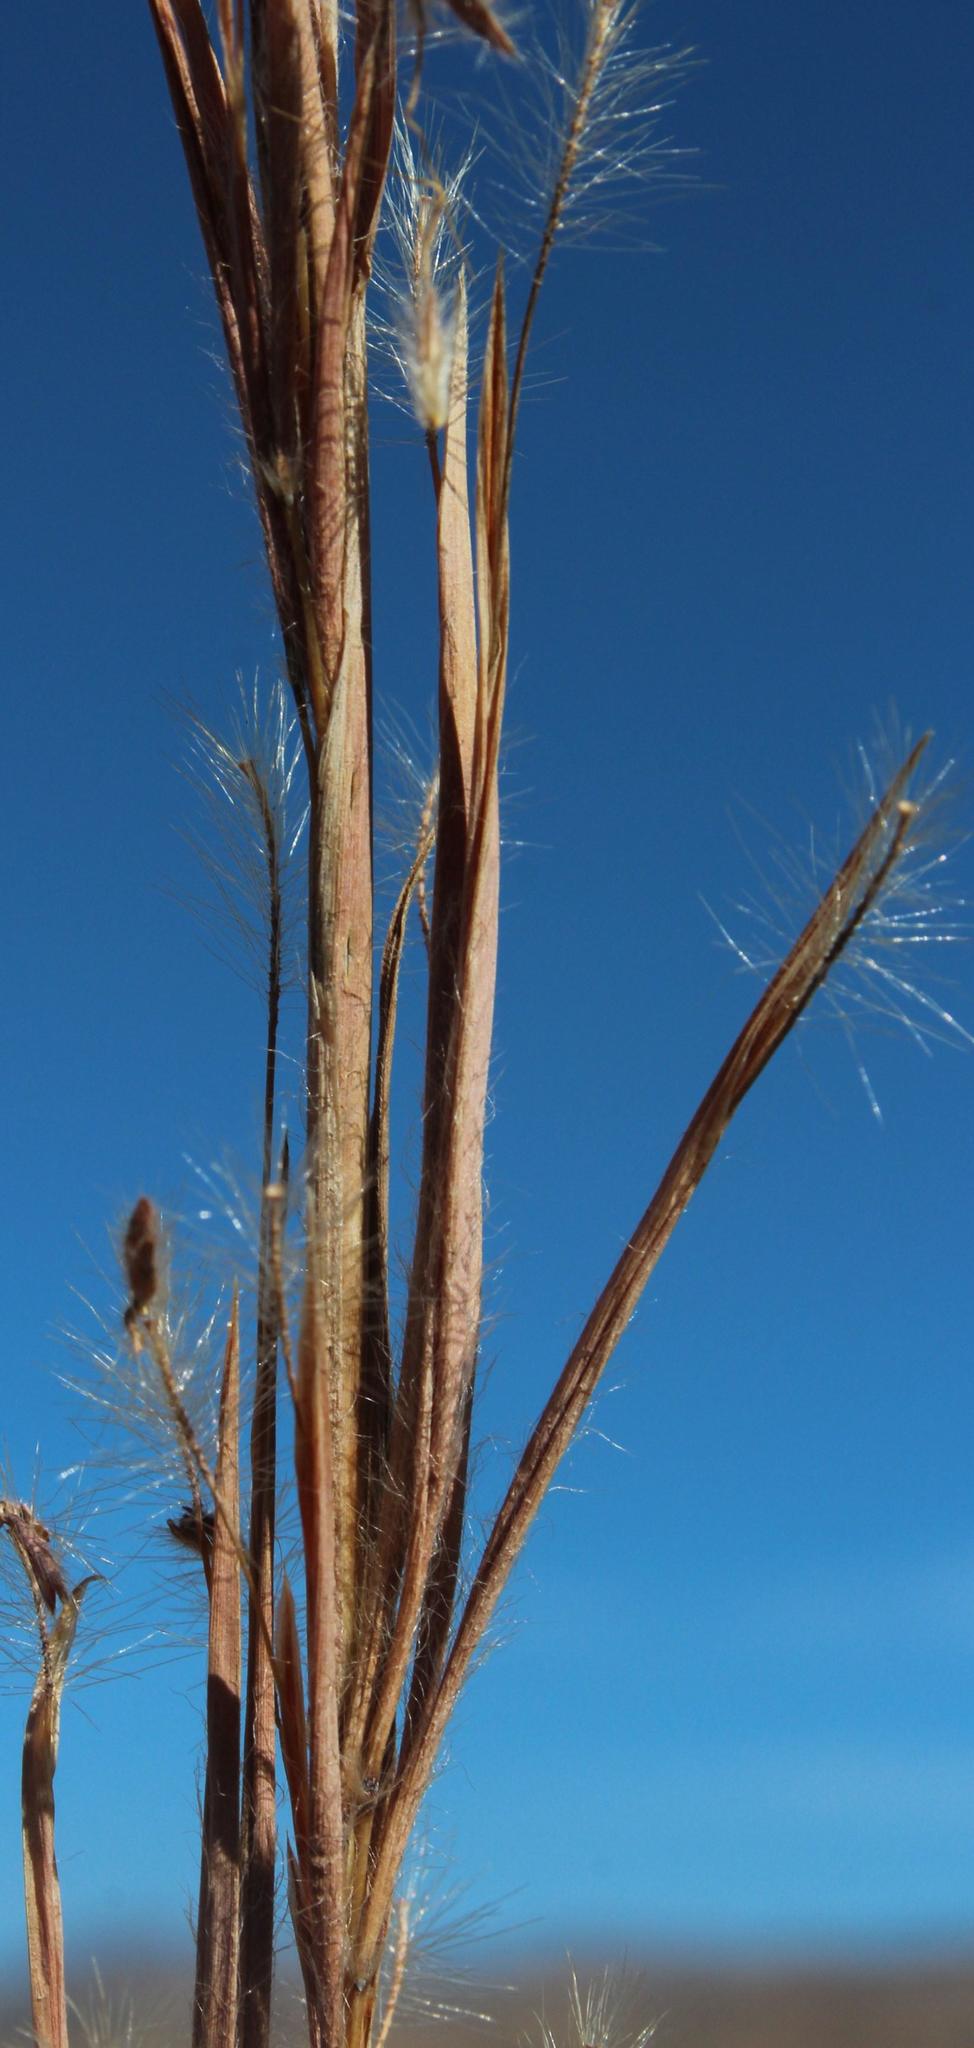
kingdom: Plantae
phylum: Tracheophyta
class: Liliopsida
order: Poales
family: Poaceae
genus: Hyparrhenia
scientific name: Hyparrhenia dregeana
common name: Silky thatching grass
